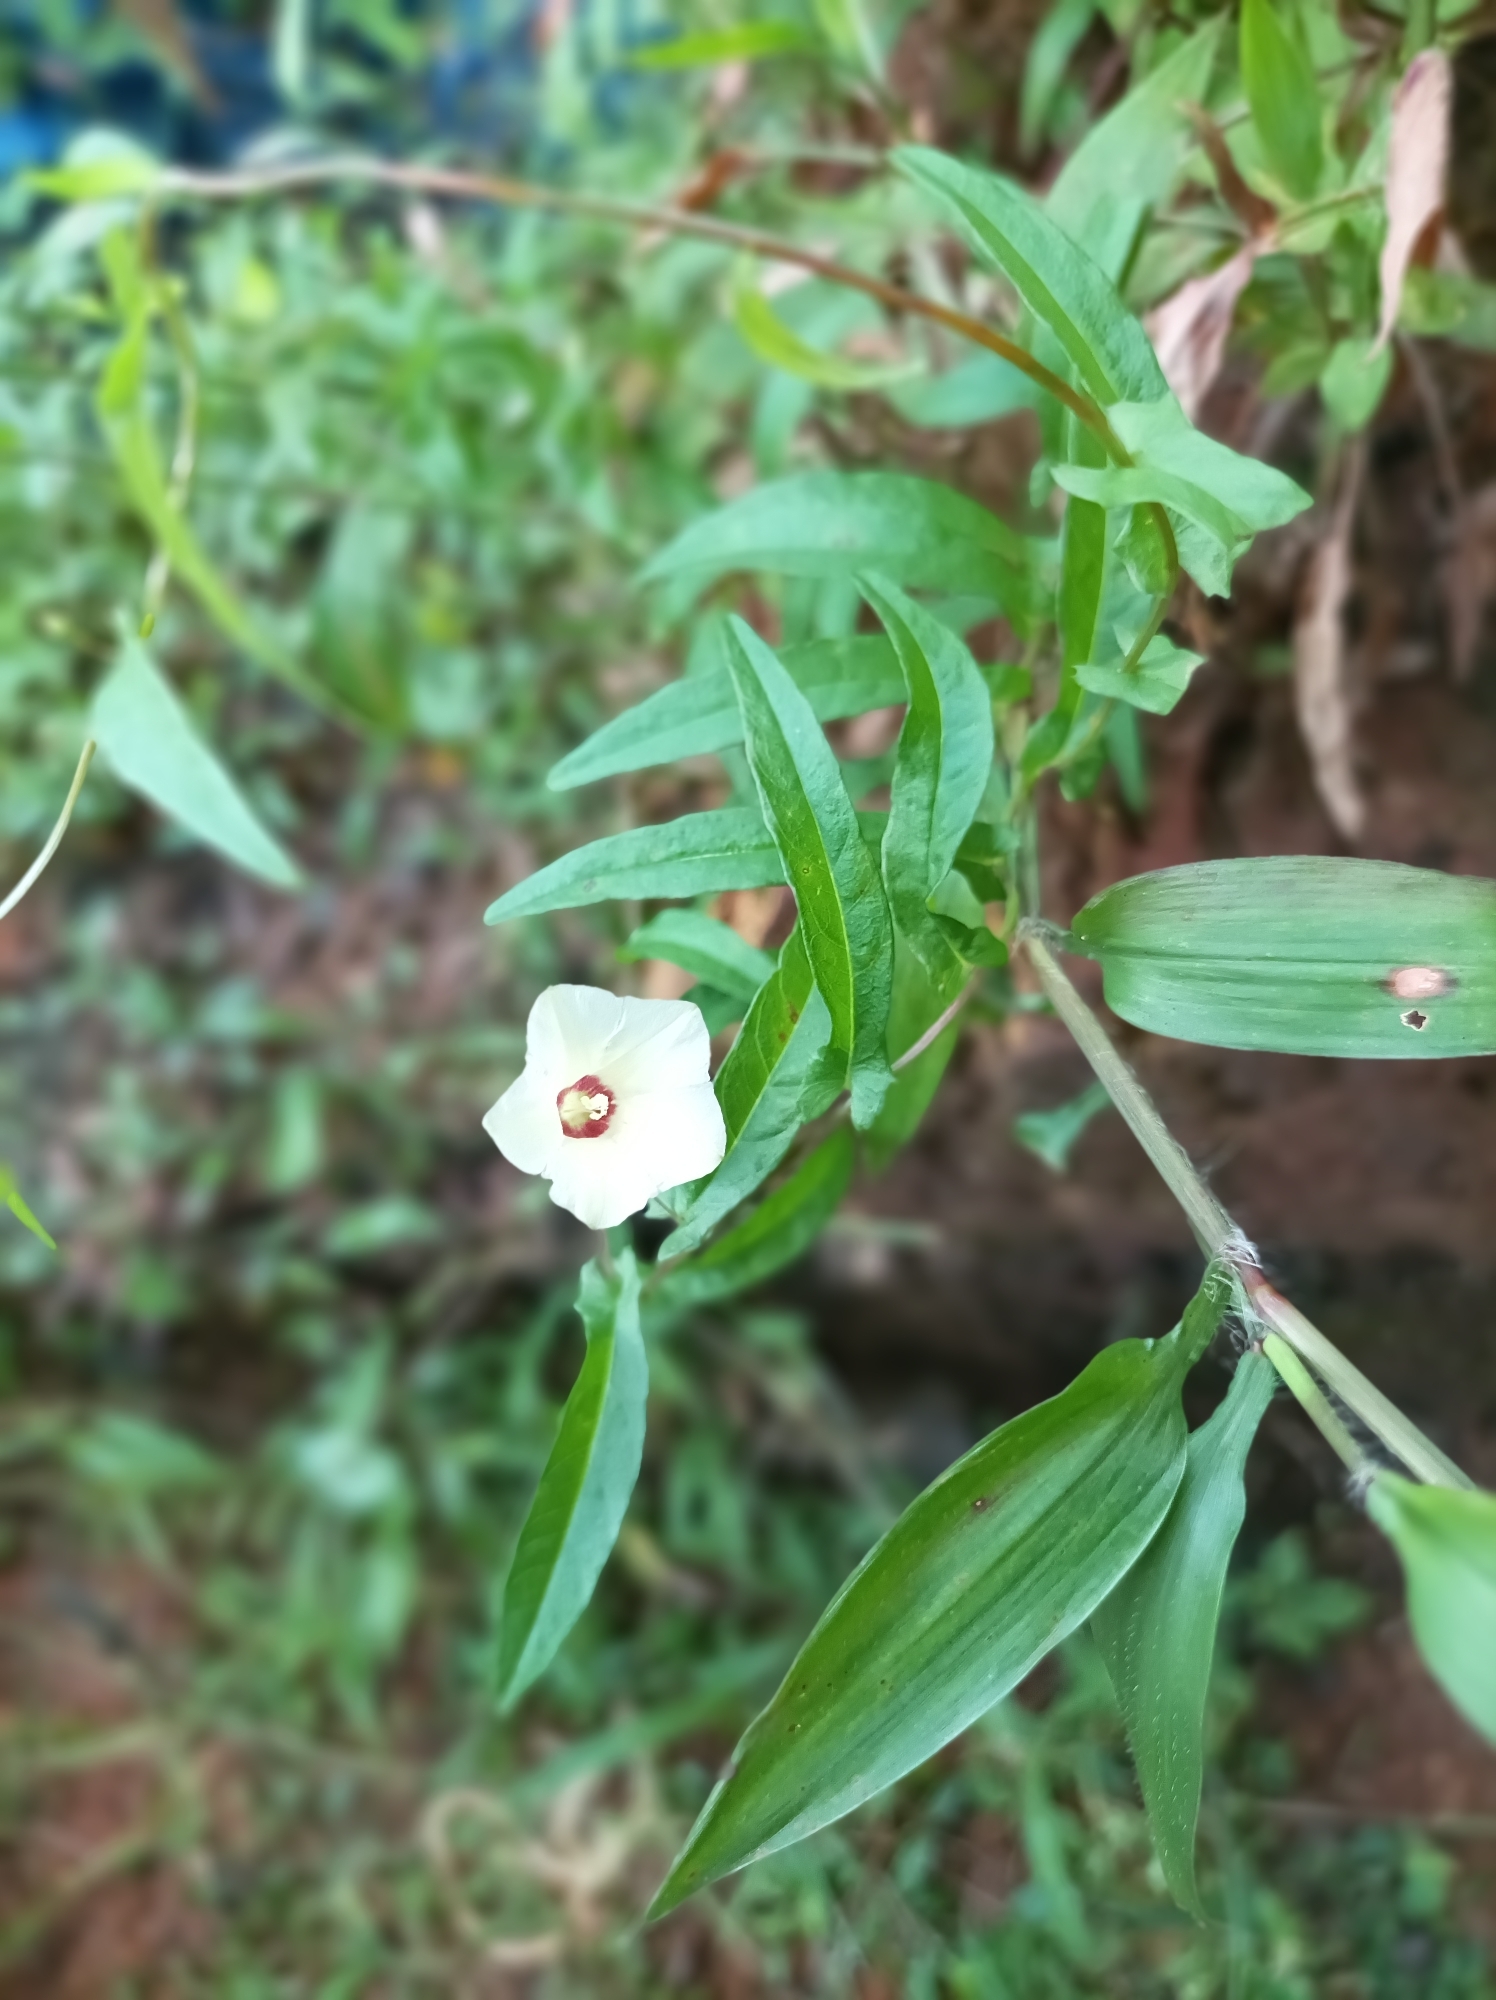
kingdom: Plantae
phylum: Tracheophyta
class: Magnoliopsida
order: Solanales
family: Convolvulaceae
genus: Xenostegia
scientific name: Xenostegia tridentata
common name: African morningvine
